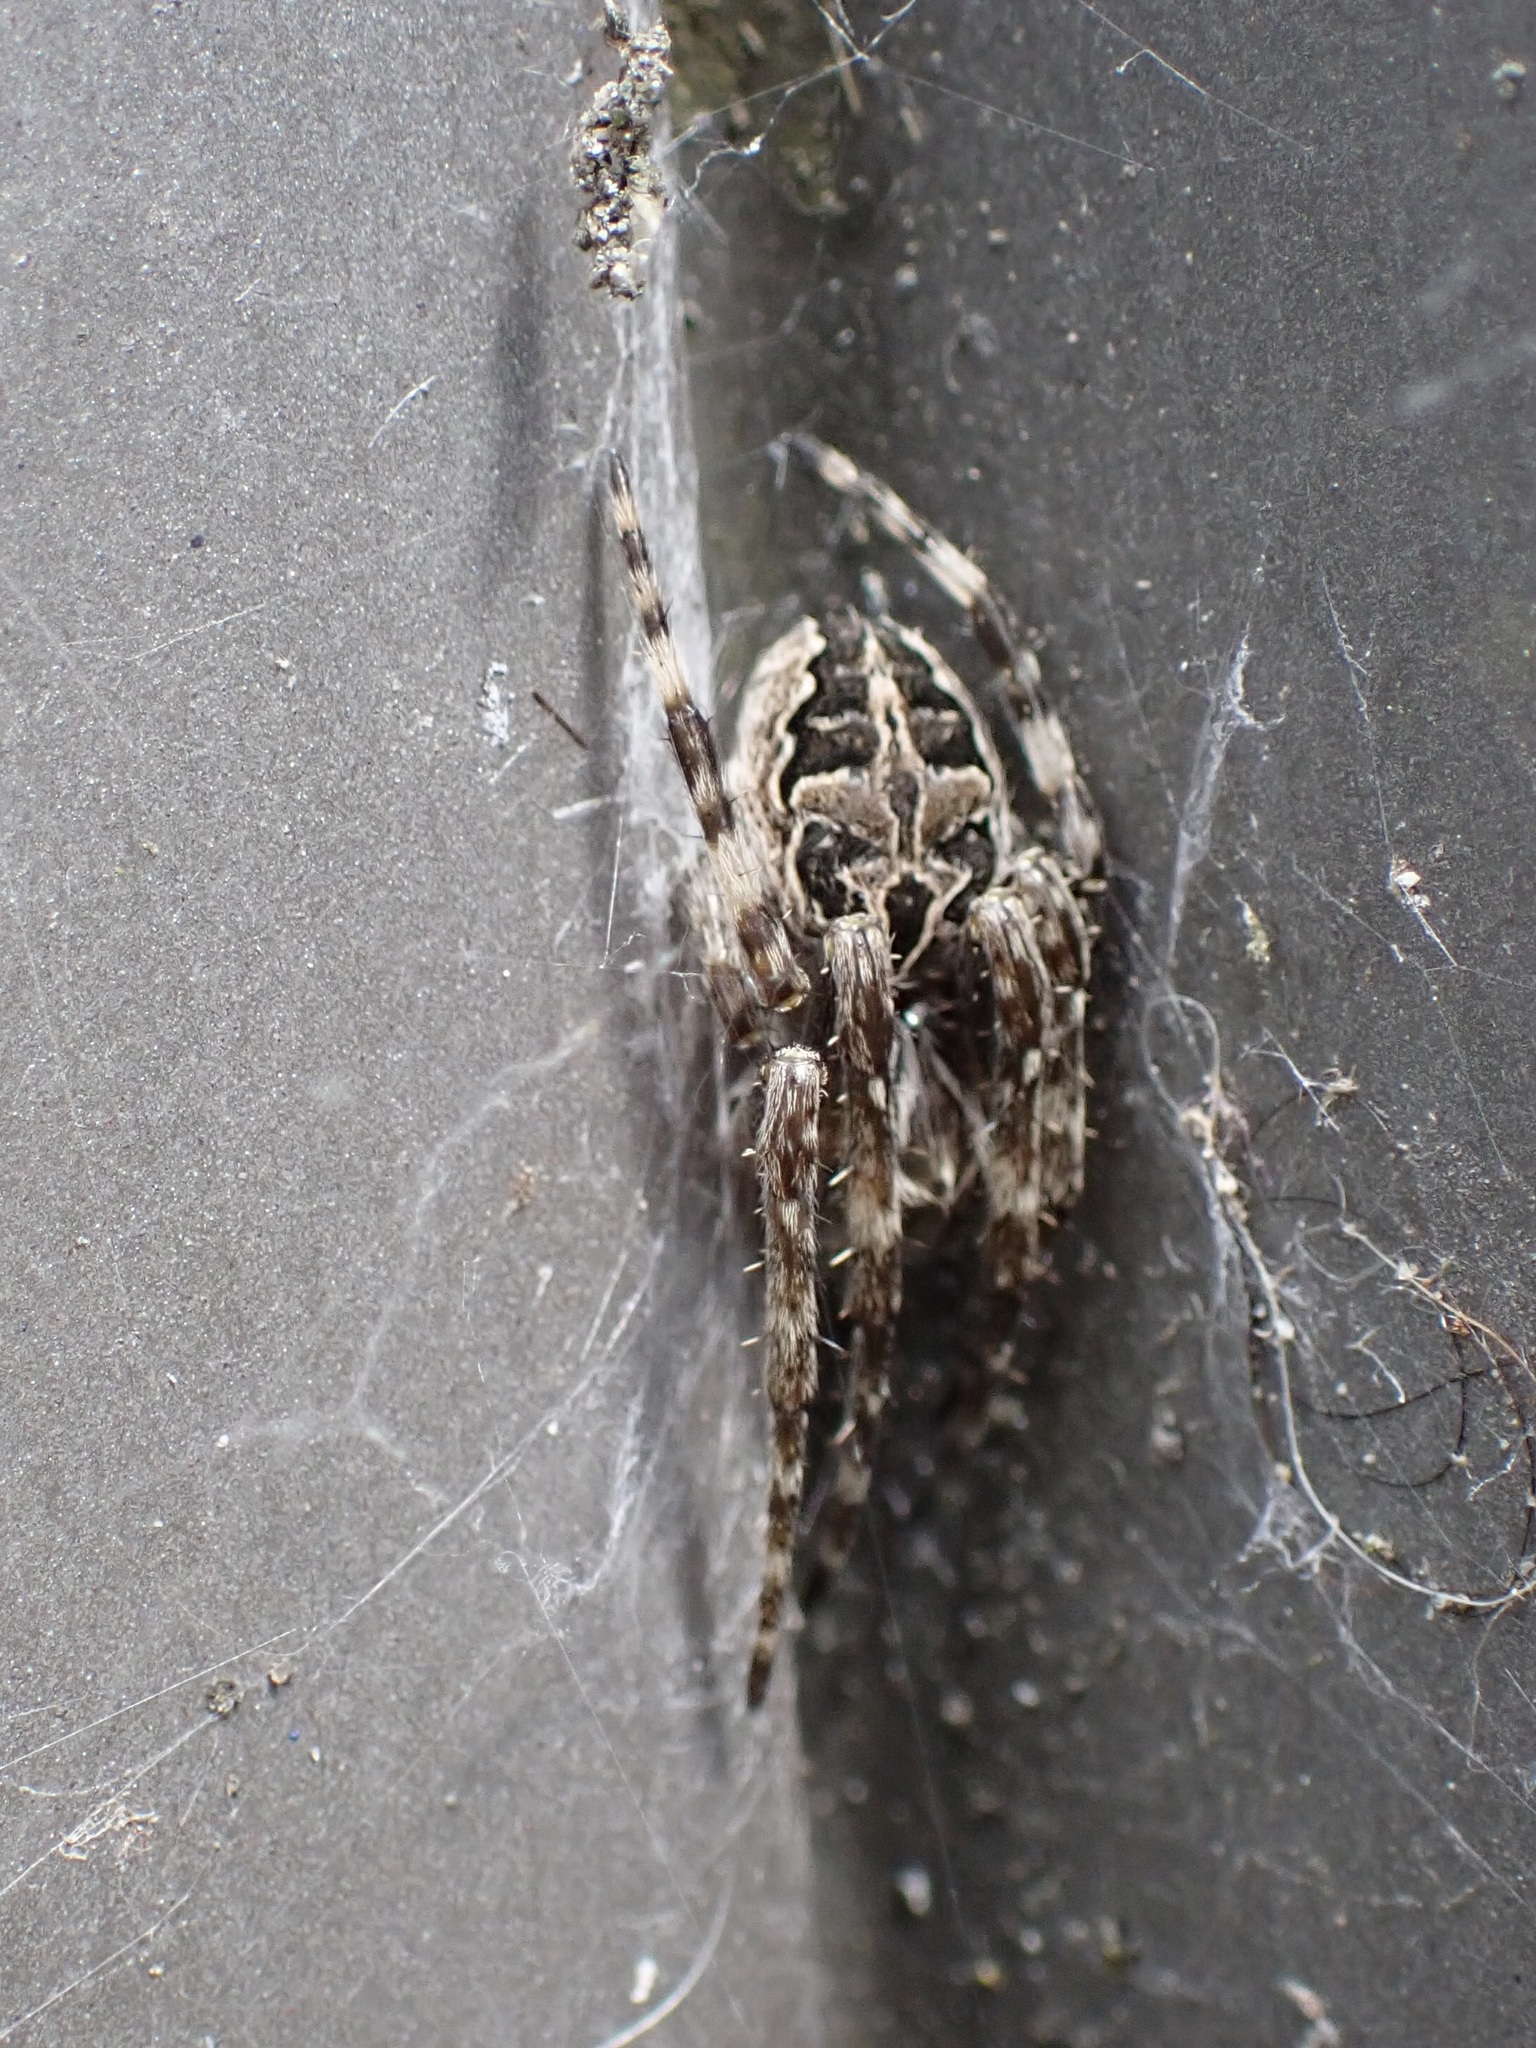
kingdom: Animalia
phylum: Arthropoda
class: Arachnida
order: Araneae
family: Araneidae
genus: Larinioides
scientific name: Larinioides sclopetarius
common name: Bridge orbweaver
